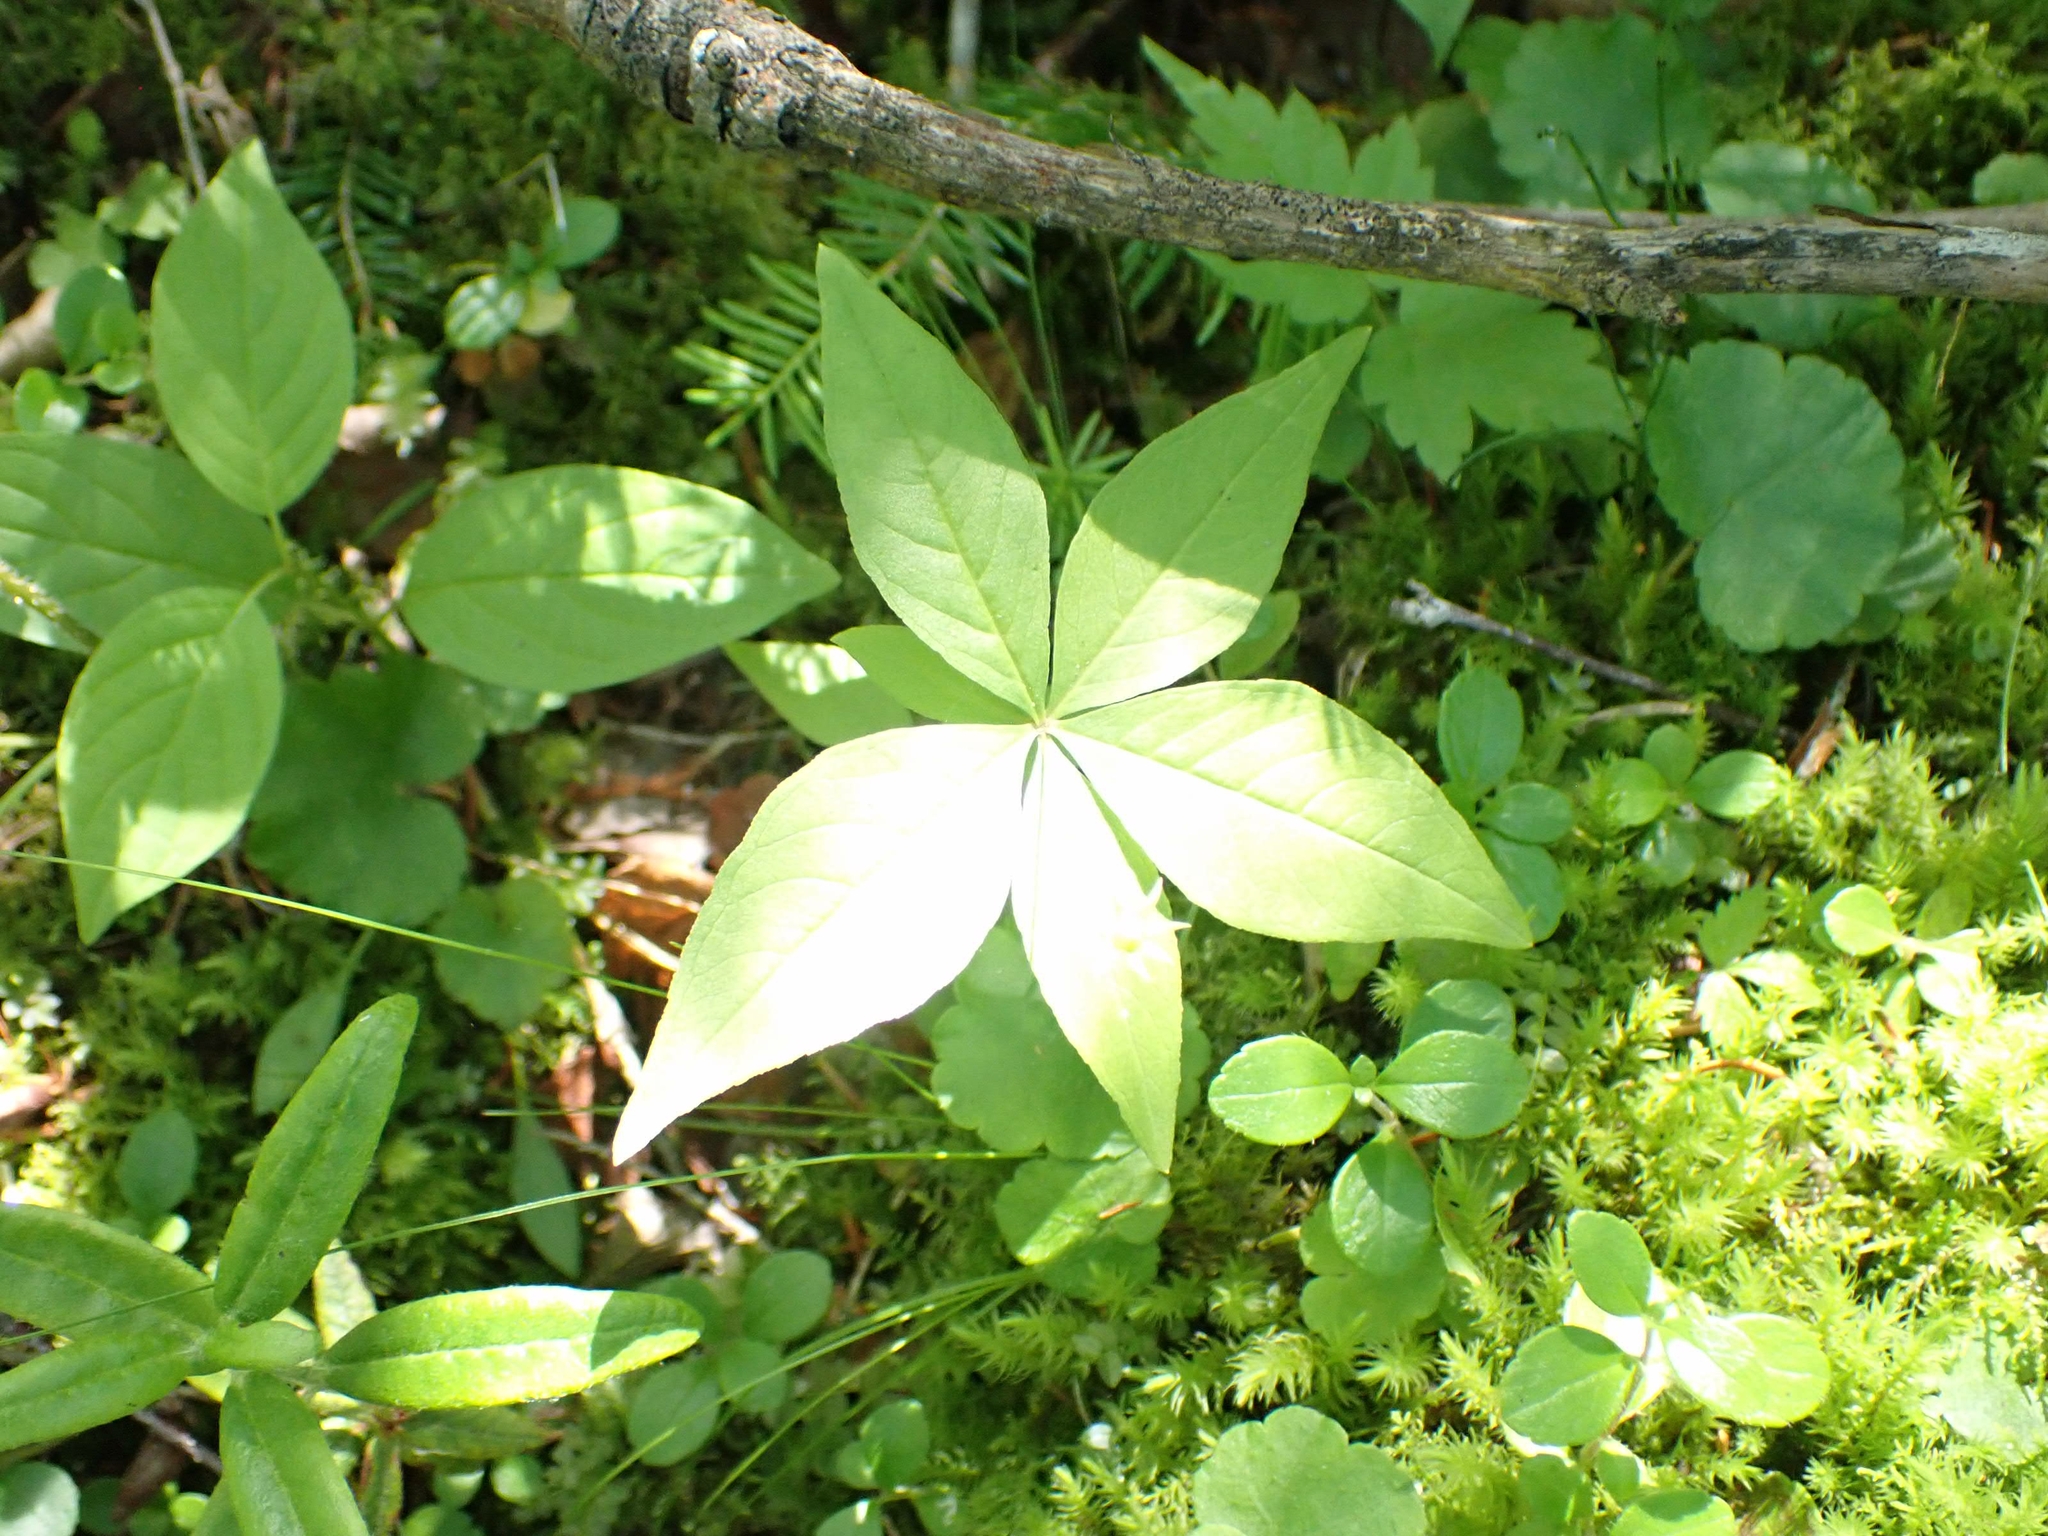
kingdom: Plantae
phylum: Tracheophyta
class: Magnoliopsida
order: Ericales
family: Primulaceae
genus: Lysimachia
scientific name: Lysimachia borealis
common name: American starflower
